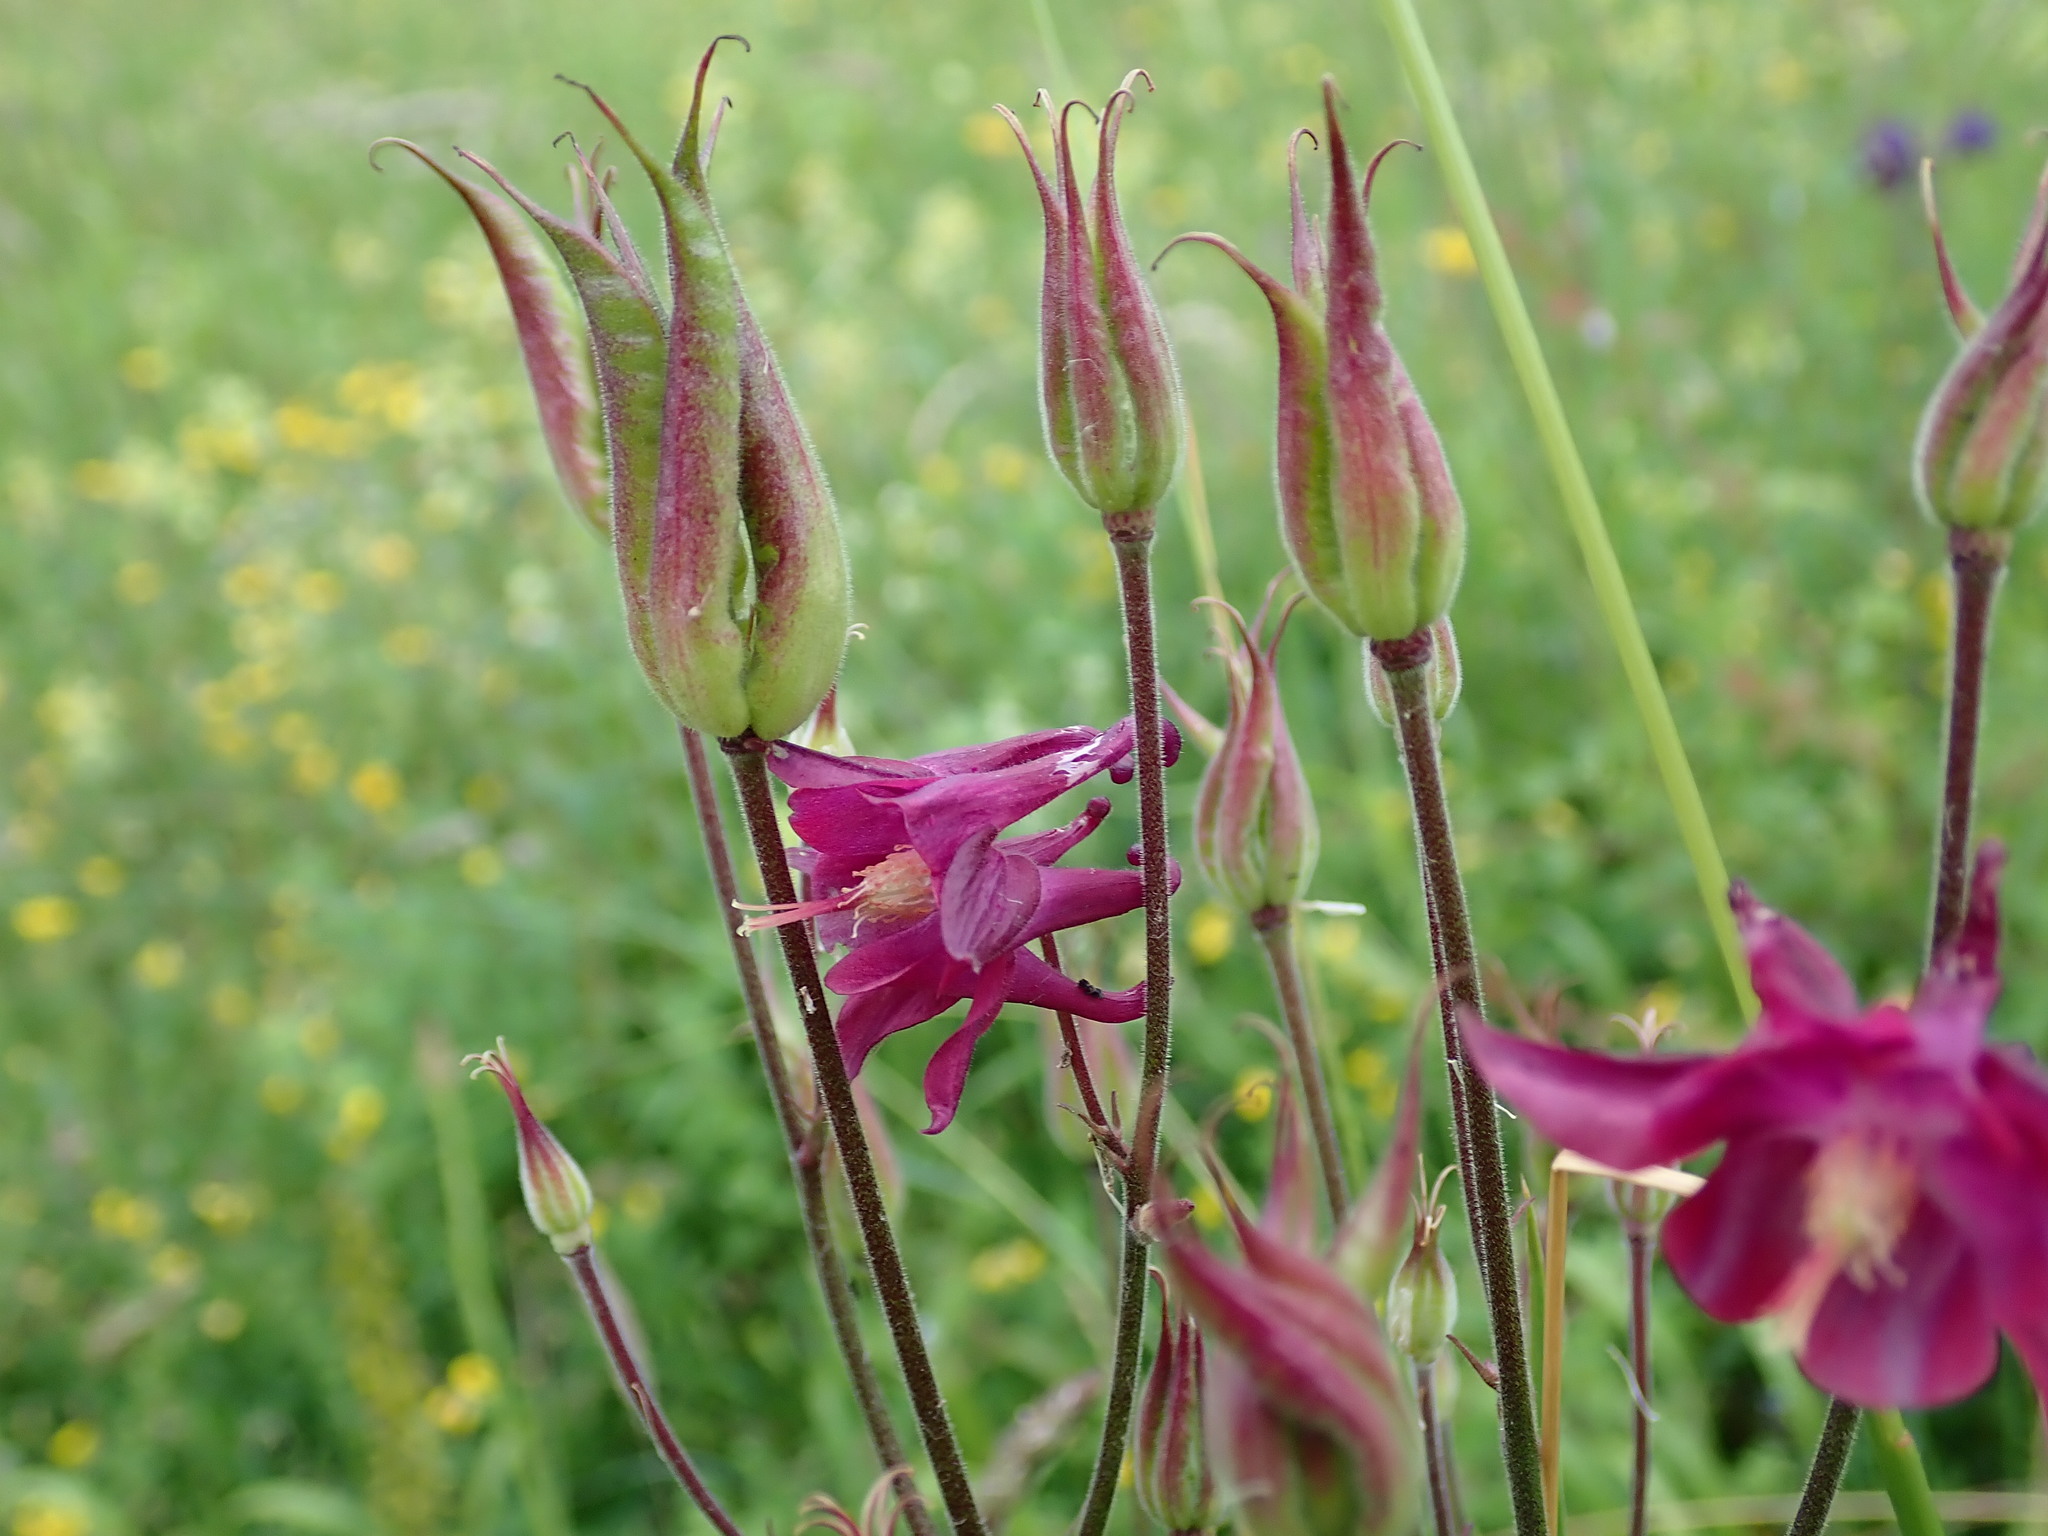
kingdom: Plantae
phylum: Tracheophyta
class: Magnoliopsida
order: Ranunculales
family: Ranunculaceae
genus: Aquilegia
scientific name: Aquilegia vulgaris
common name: Columbine
